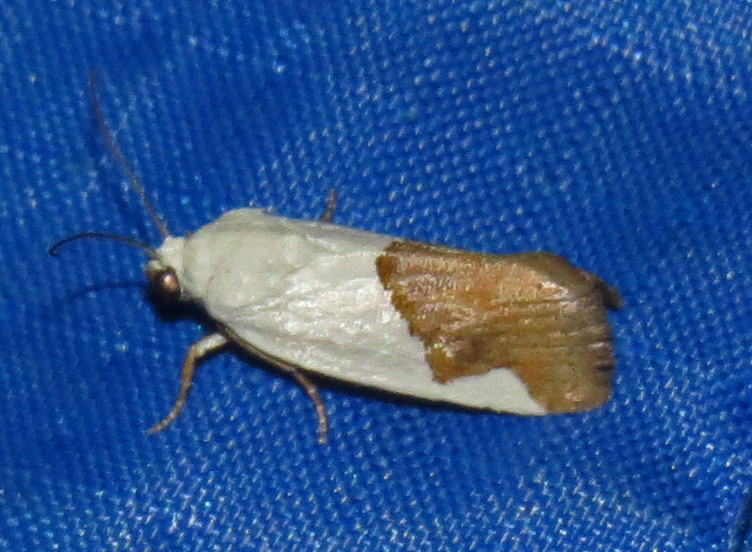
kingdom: Animalia
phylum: Arthropoda
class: Insecta
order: Lepidoptera
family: Noctuidae
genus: Acontia
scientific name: Acontia heonyx
